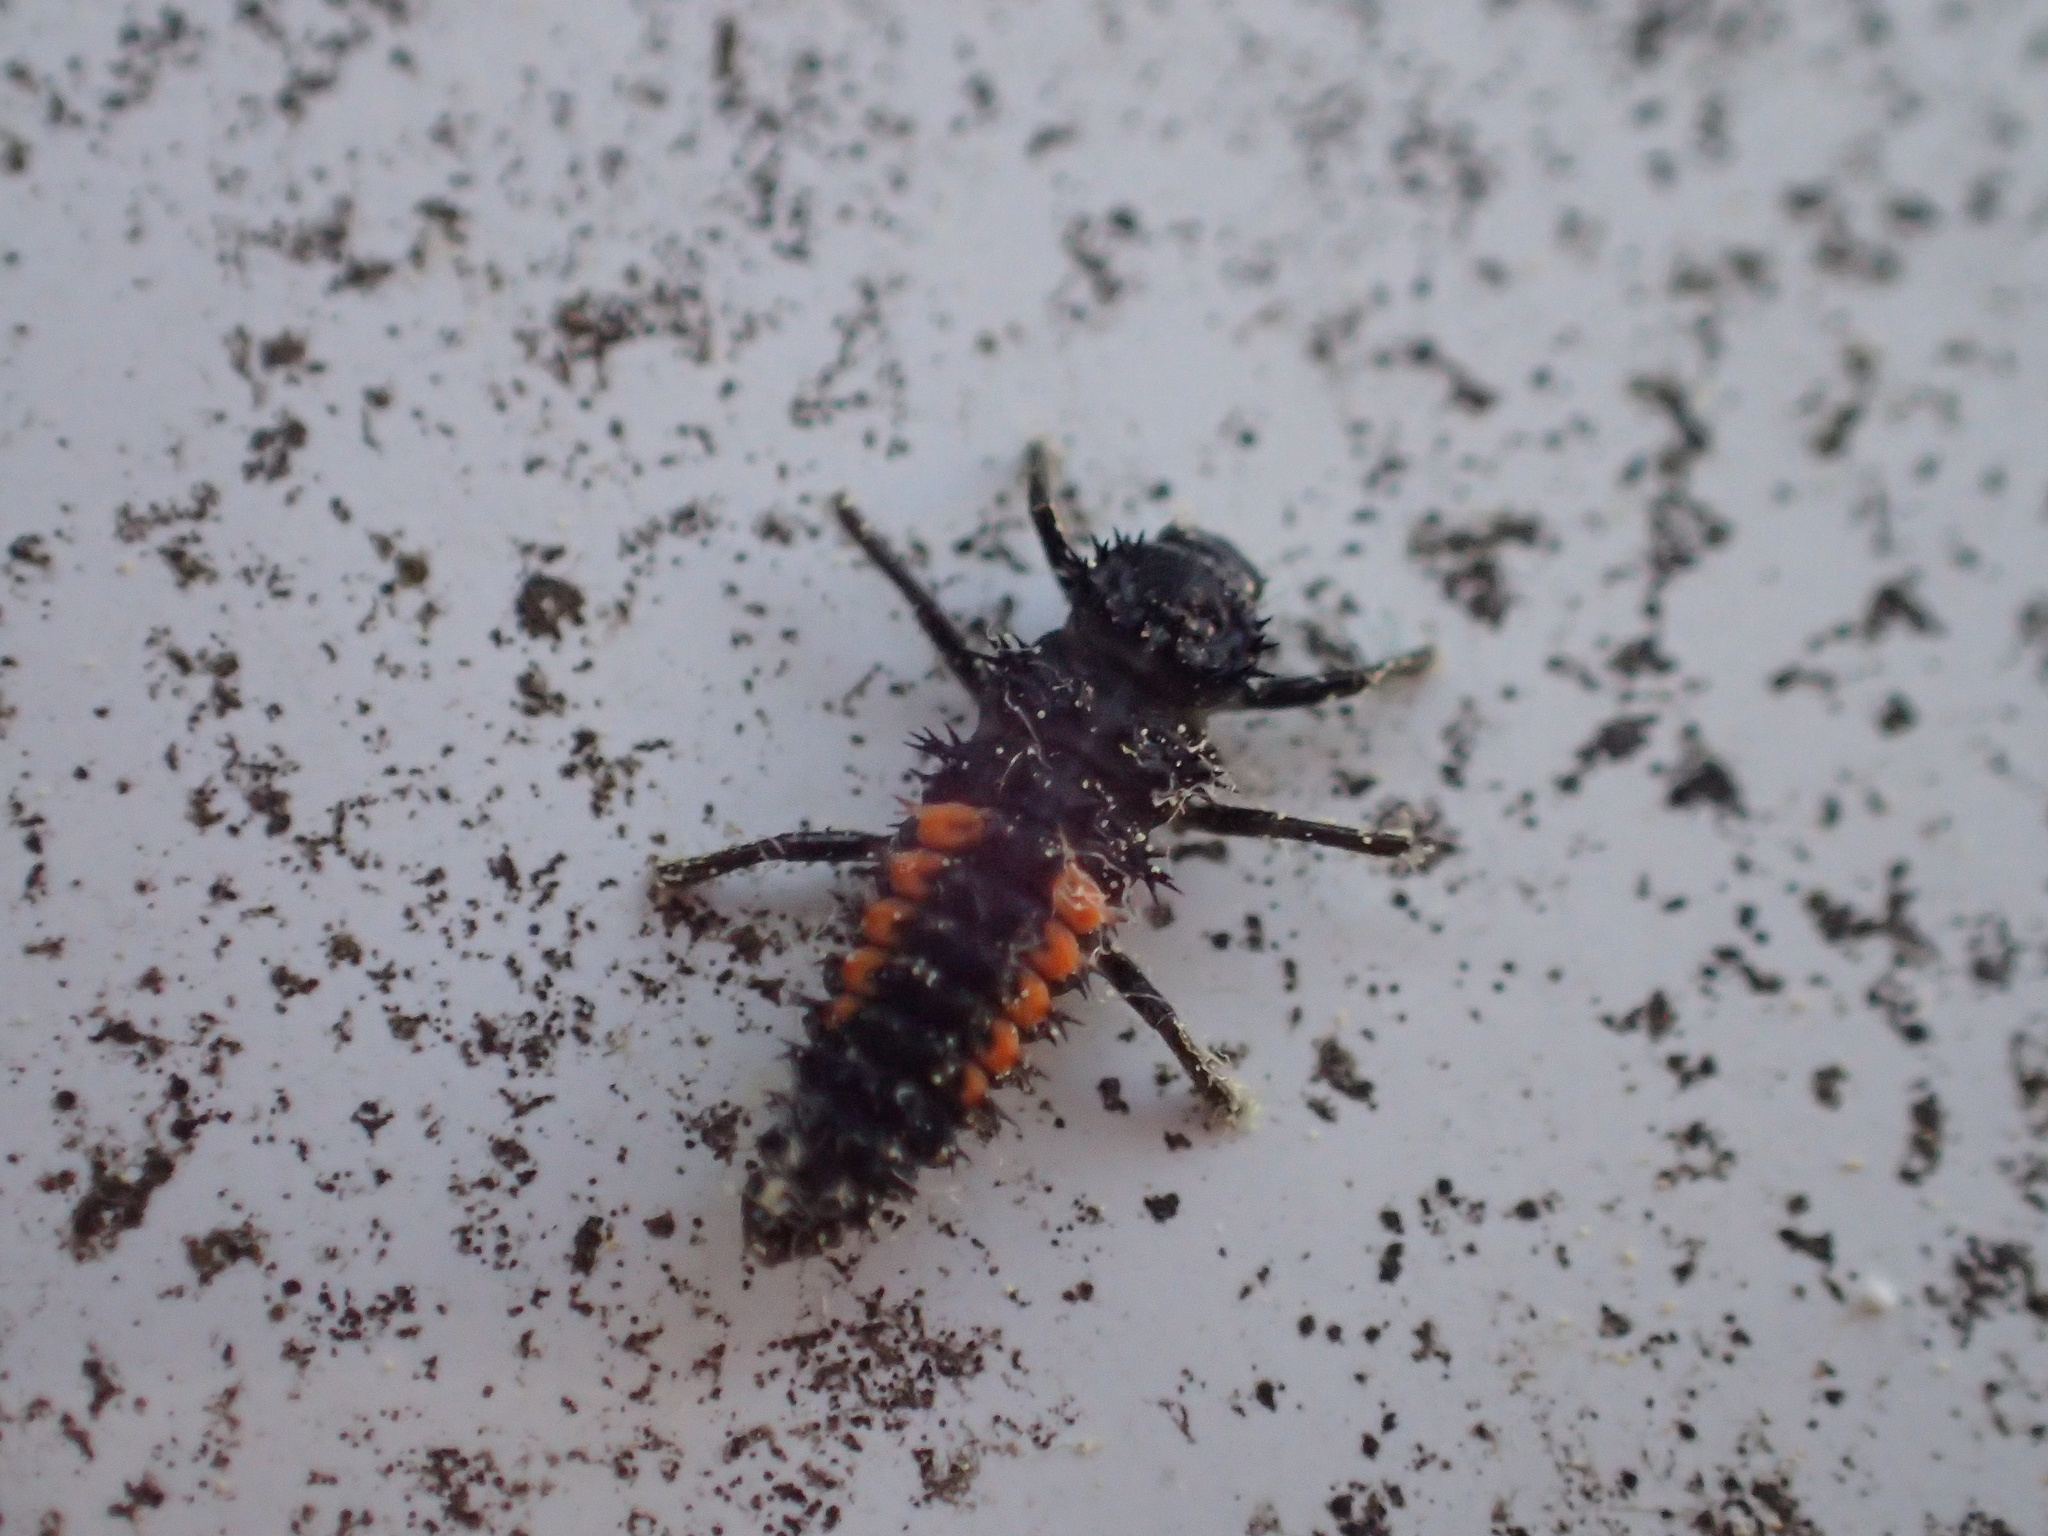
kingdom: Animalia
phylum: Arthropoda
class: Insecta
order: Coleoptera
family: Coccinellidae
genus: Harmonia
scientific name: Harmonia axyridis
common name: Harlequin ladybird
